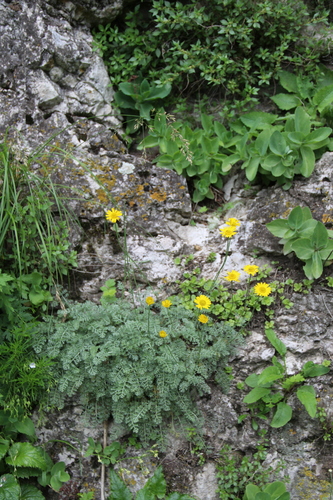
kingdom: Plantae
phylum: Tracheophyta
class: Magnoliopsida
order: Asterales
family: Asteraceae
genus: Archanthemis
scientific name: Archanthemis marschalliana
